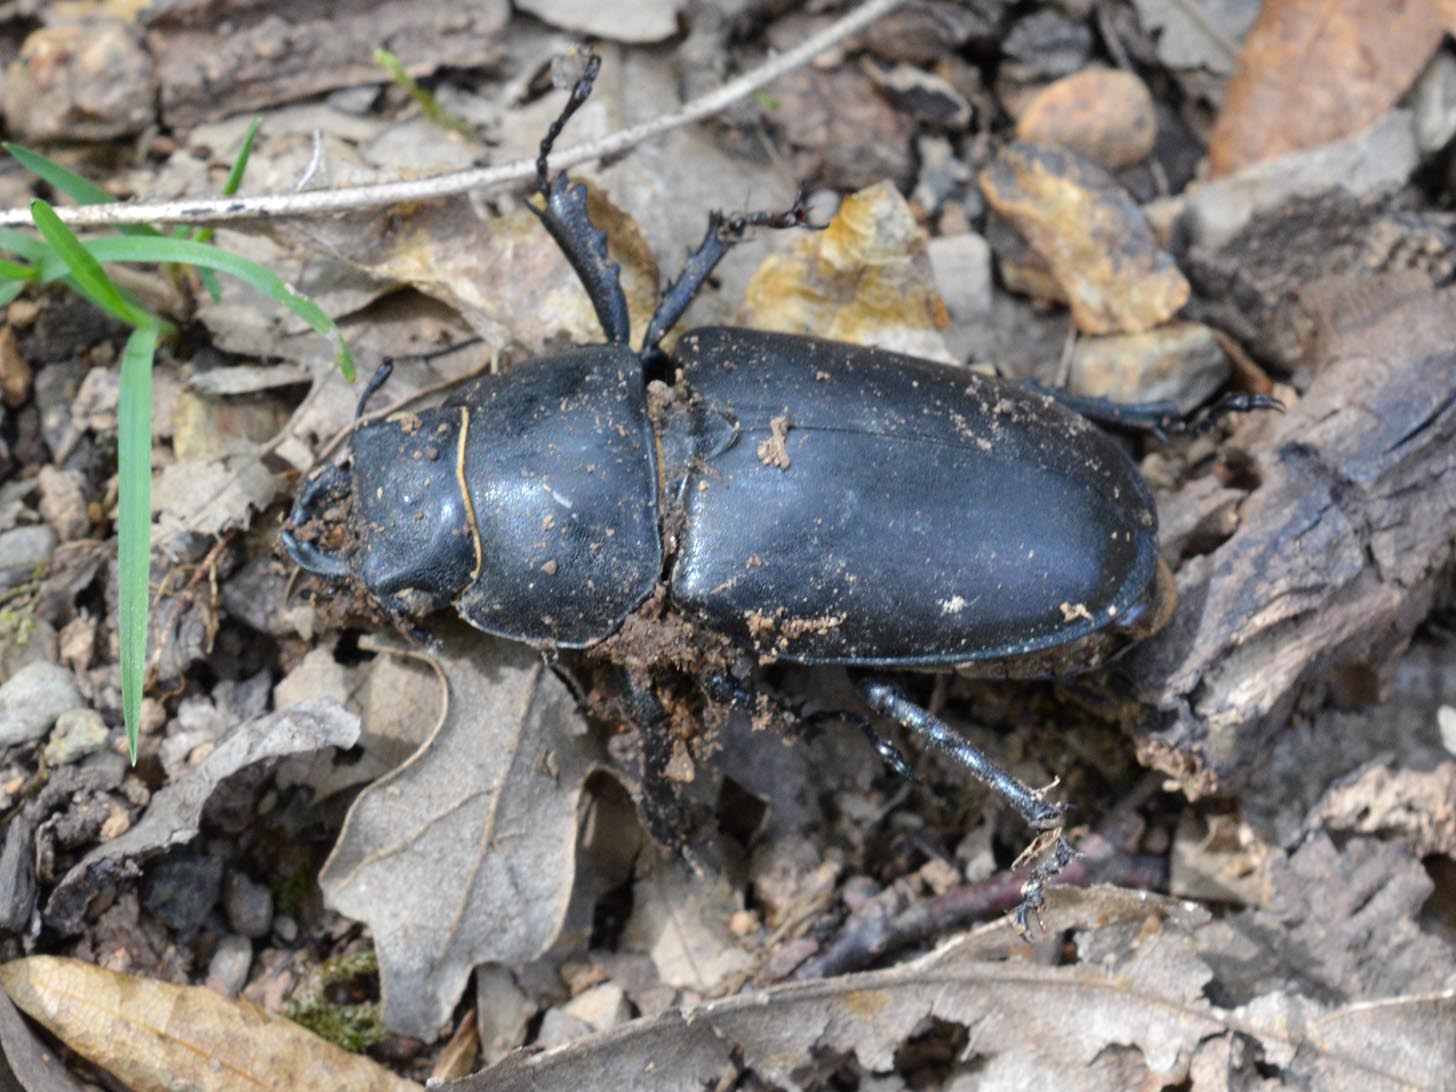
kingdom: Animalia
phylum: Arthropoda
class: Insecta
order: Coleoptera
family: Lucanidae
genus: Lucanus
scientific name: Lucanus cervus
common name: Stag beetle
